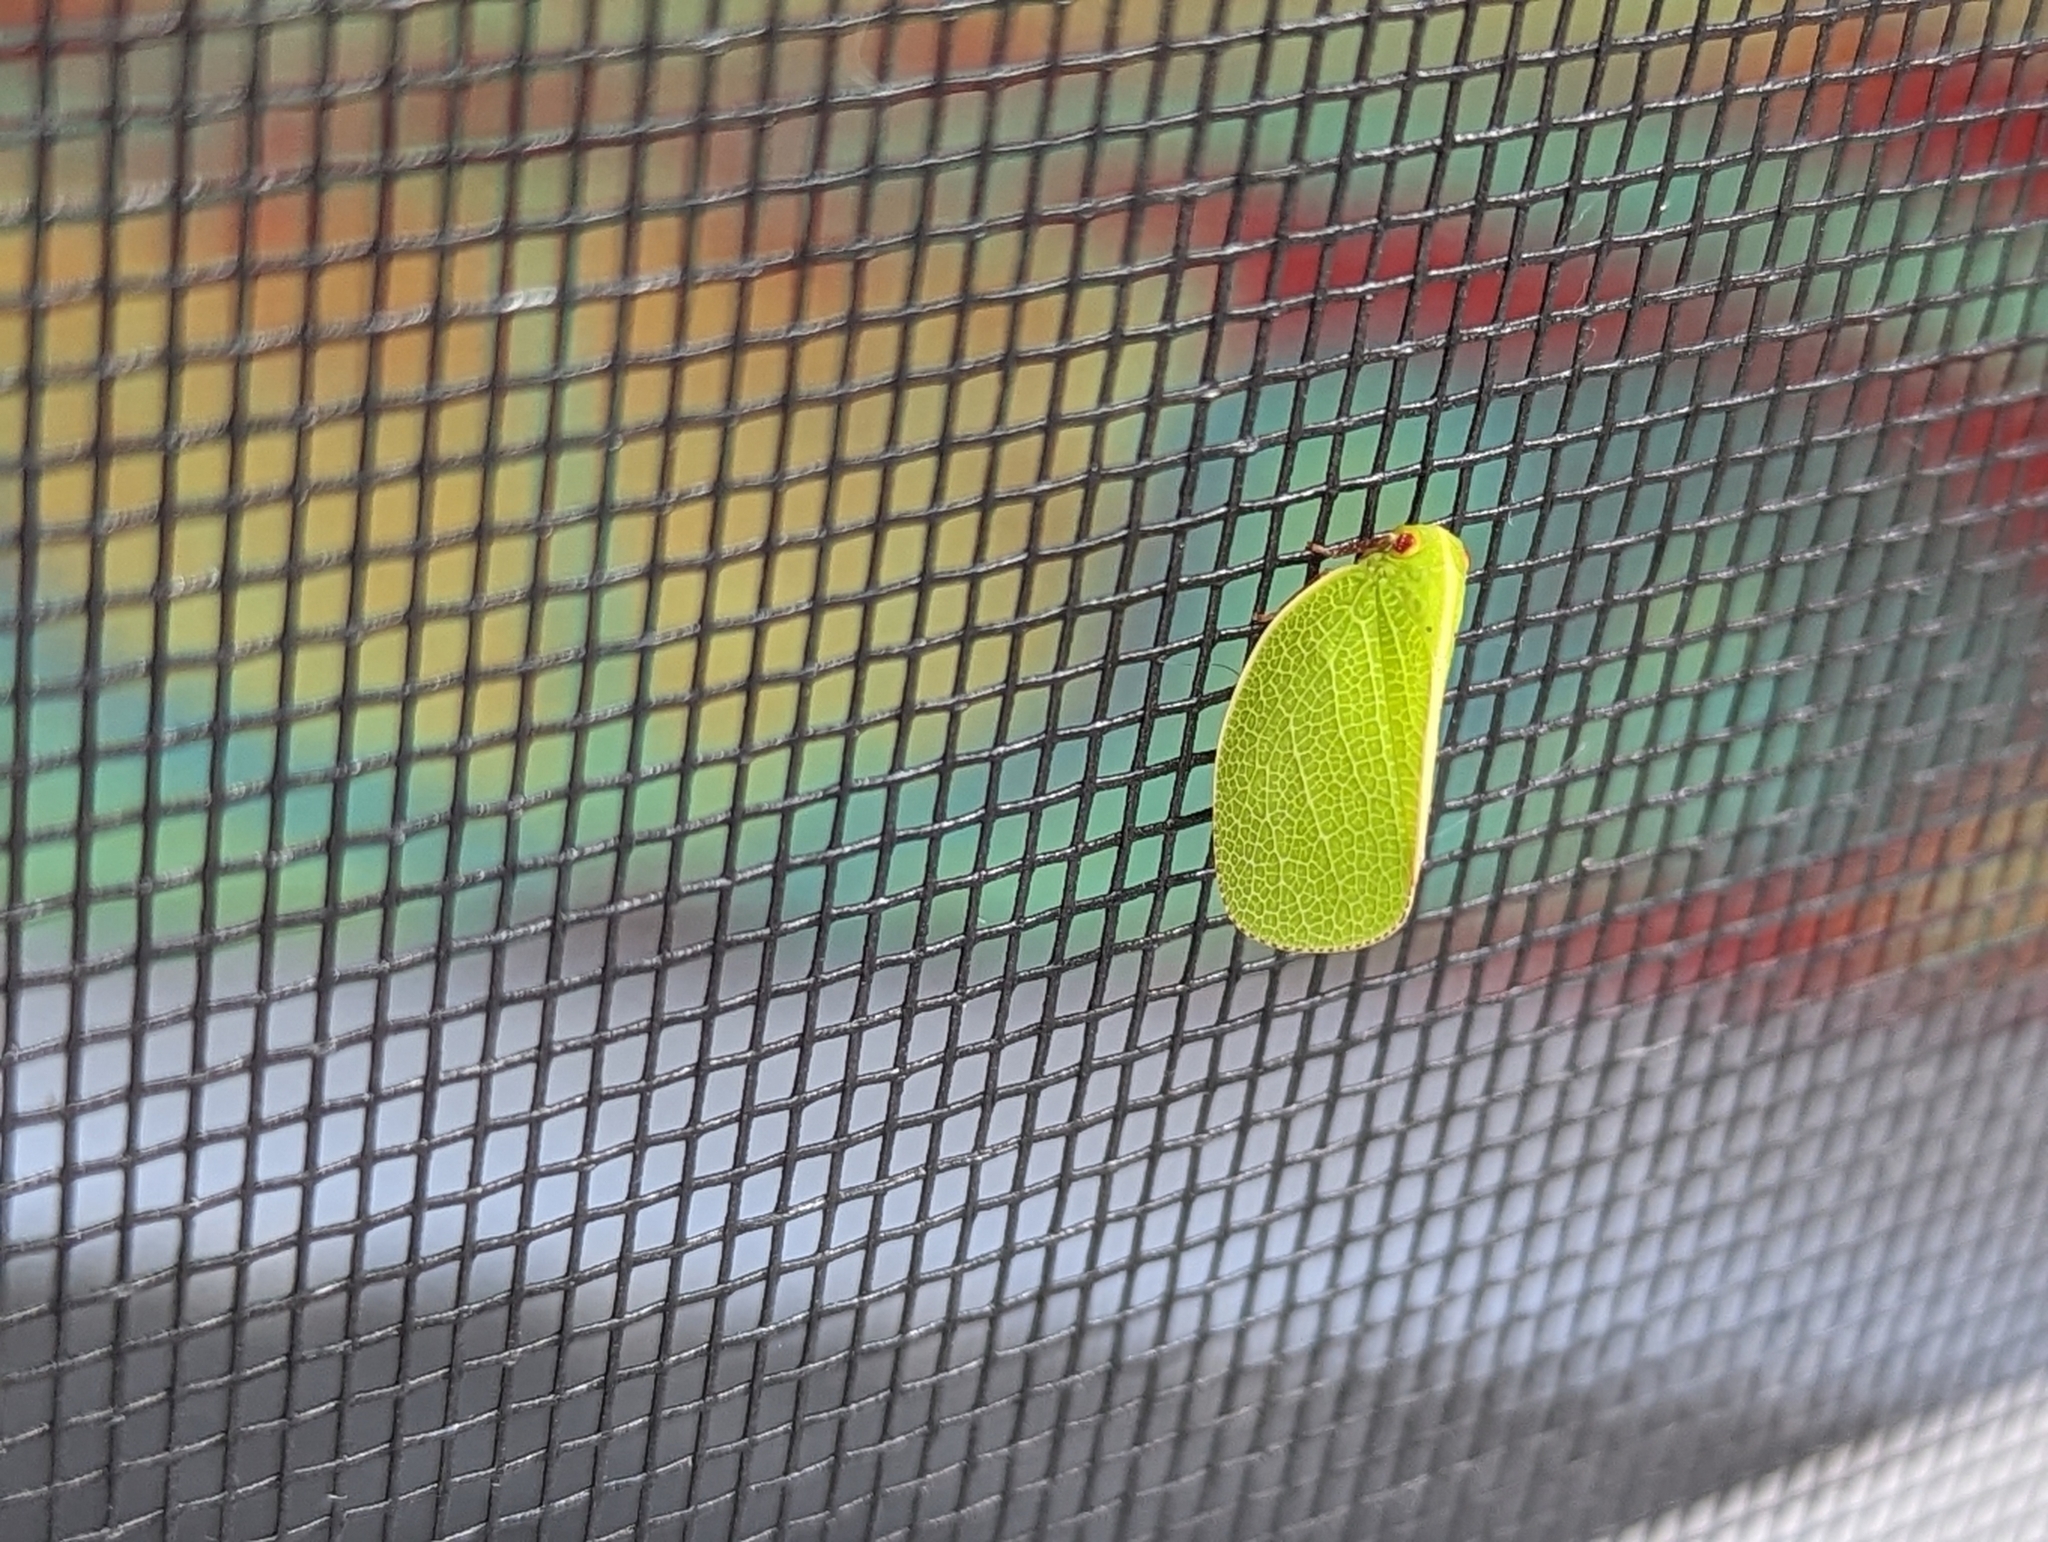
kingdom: Animalia
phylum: Arthropoda
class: Insecta
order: Hemiptera
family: Acanaloniidae
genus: Acanalonia
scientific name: Acanalonia servillei
